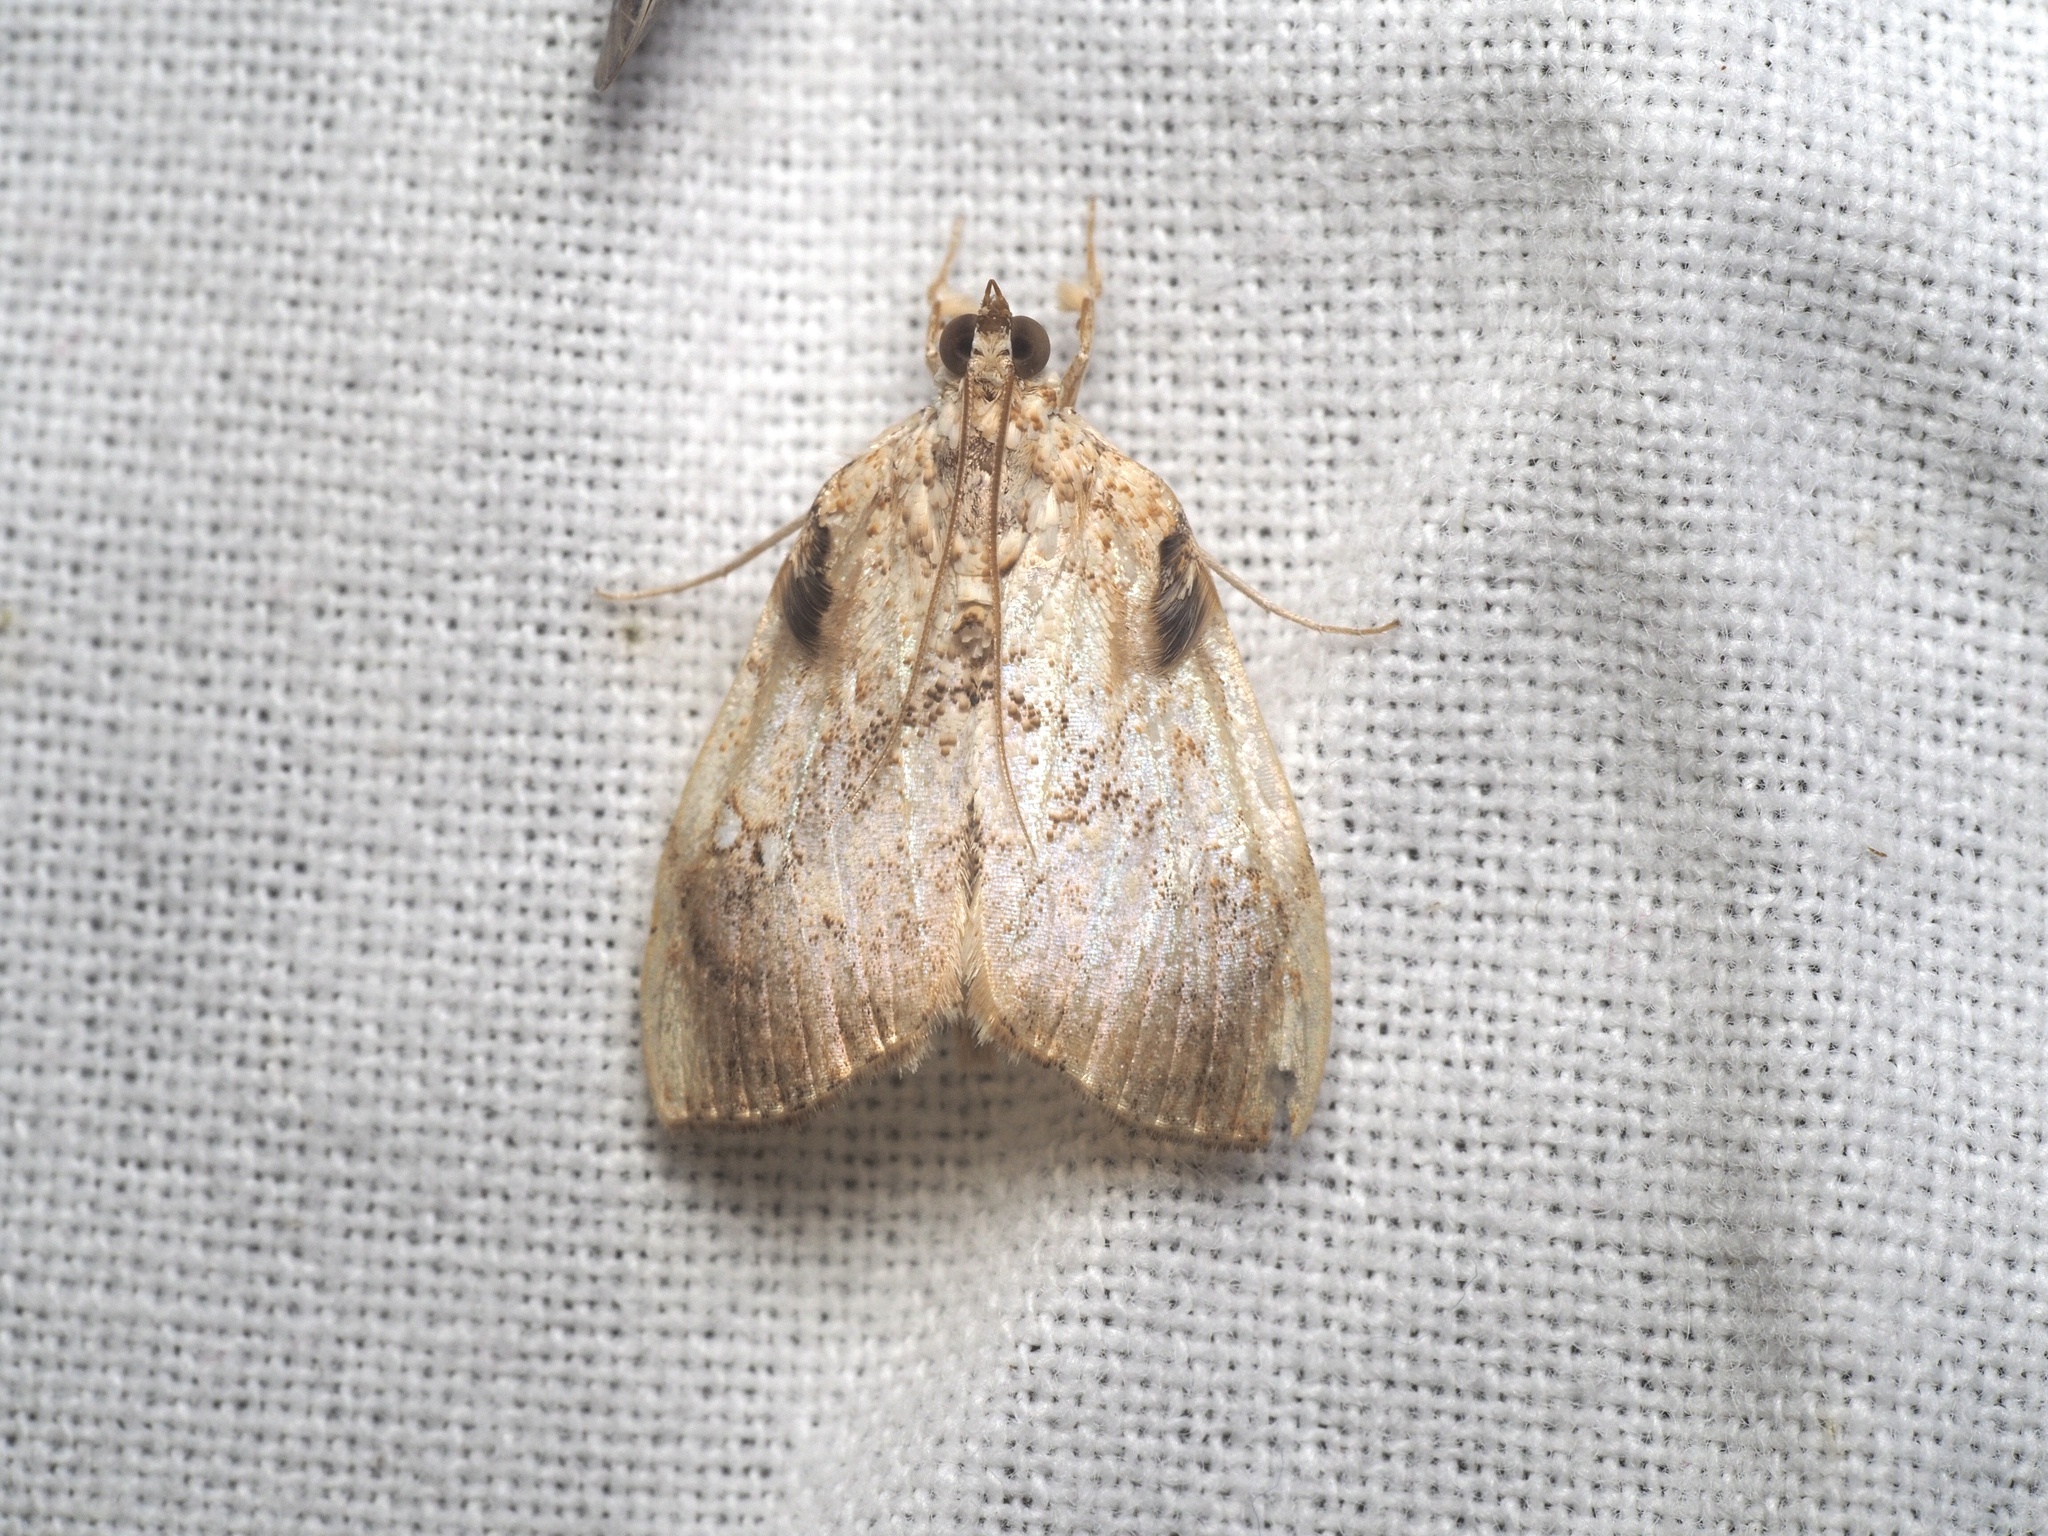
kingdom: Animalia
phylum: Arthropoda
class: Insecta
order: Lepidoptera
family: Crambidae
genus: Crocidolomia
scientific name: Crocidolomia pavonana
